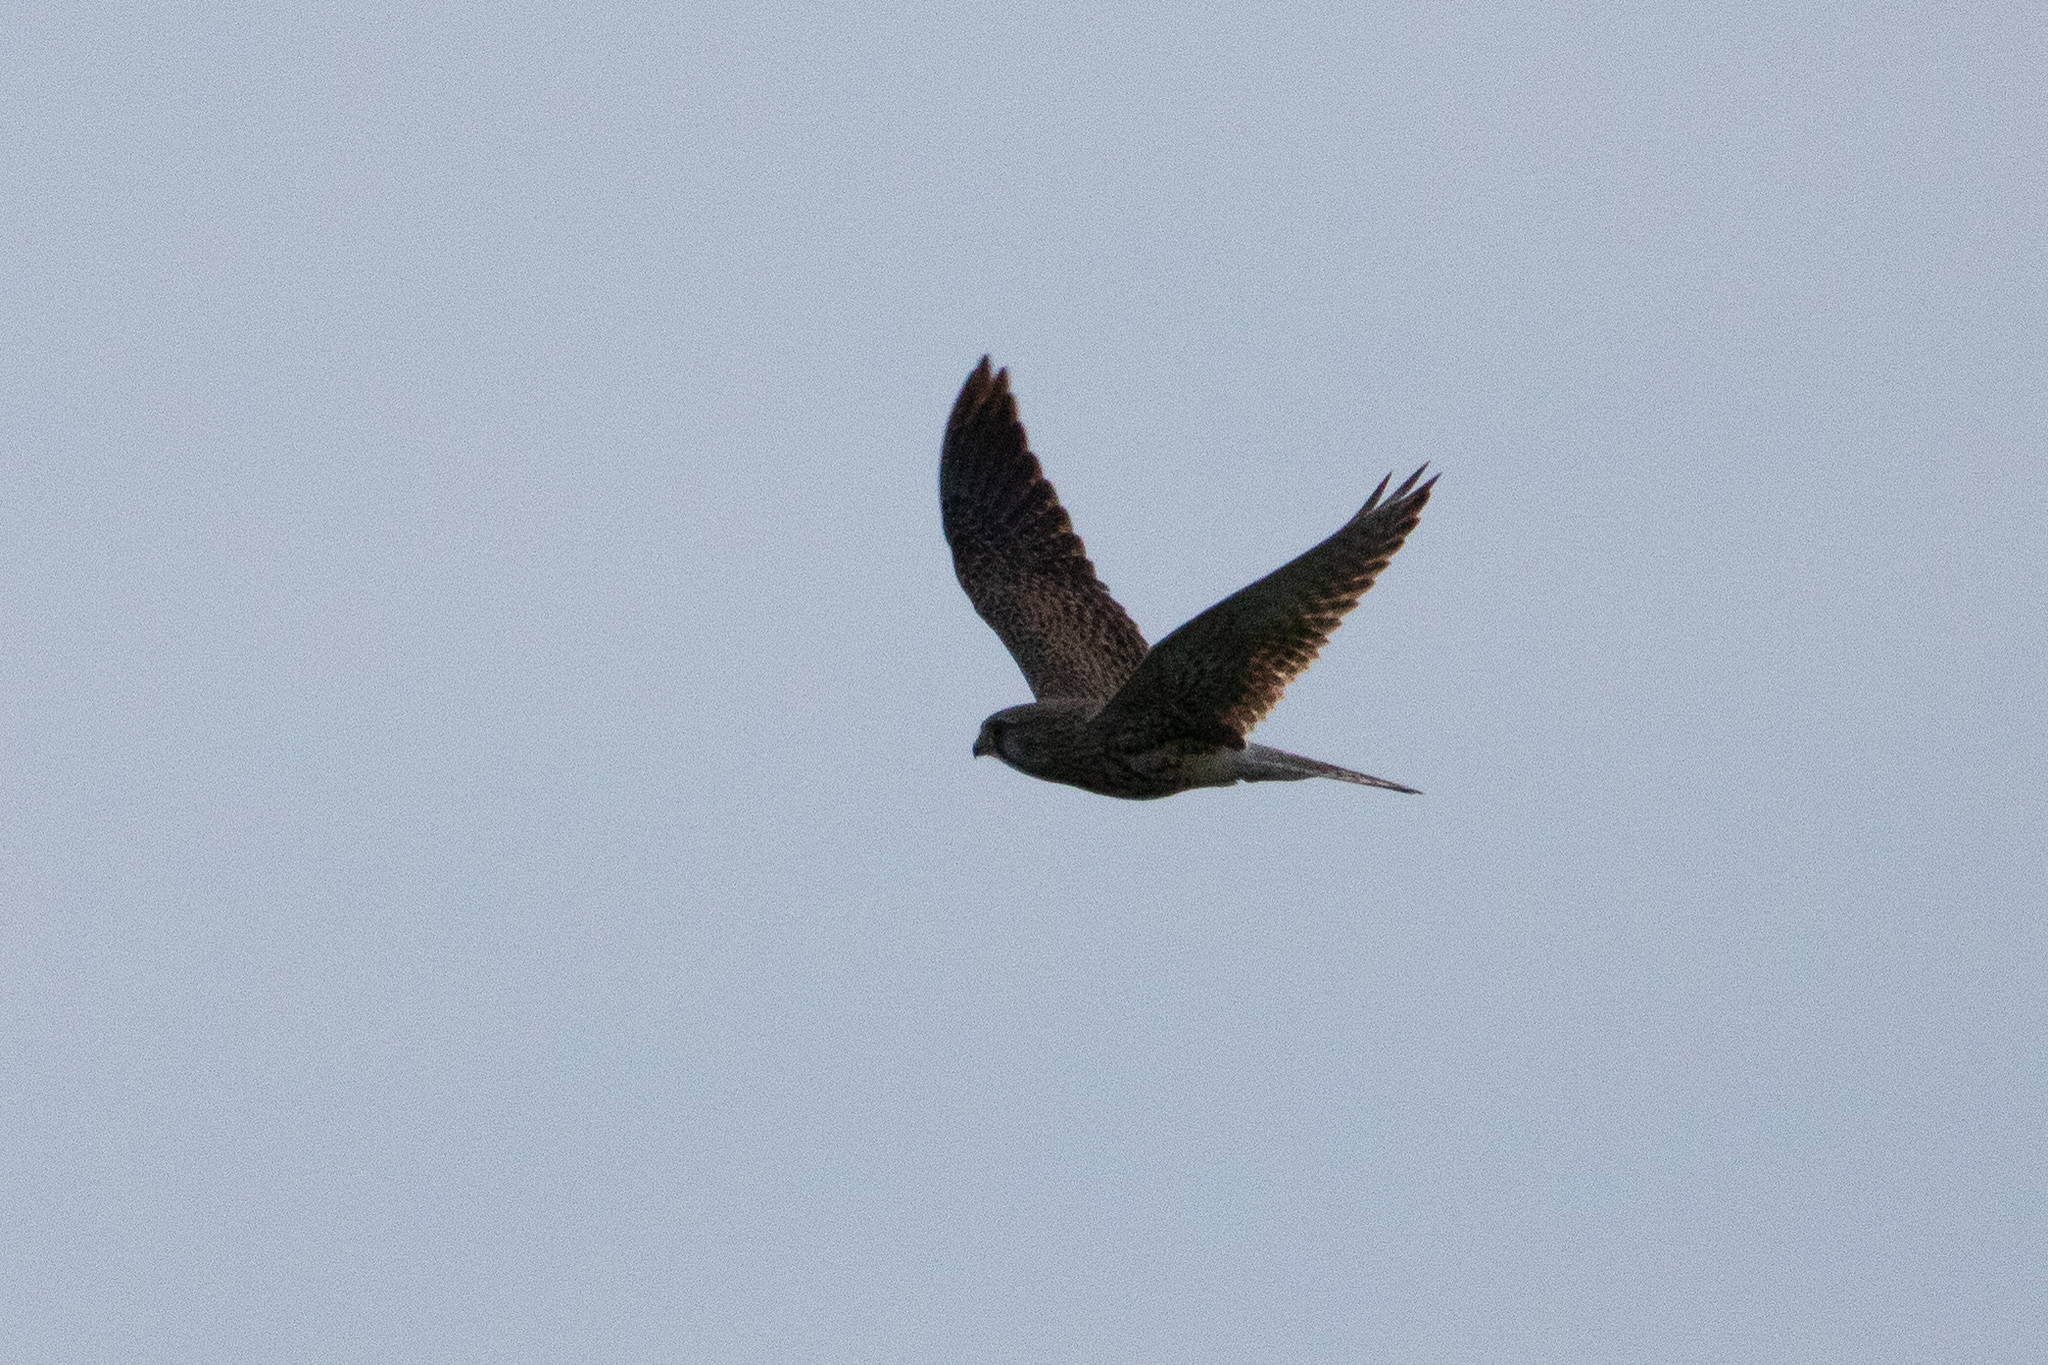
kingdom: Animalia
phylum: Chordata
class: Aves
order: Falconiformes
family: Falconidae
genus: Falco
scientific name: Falco tinnunculus
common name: Common kestrel
